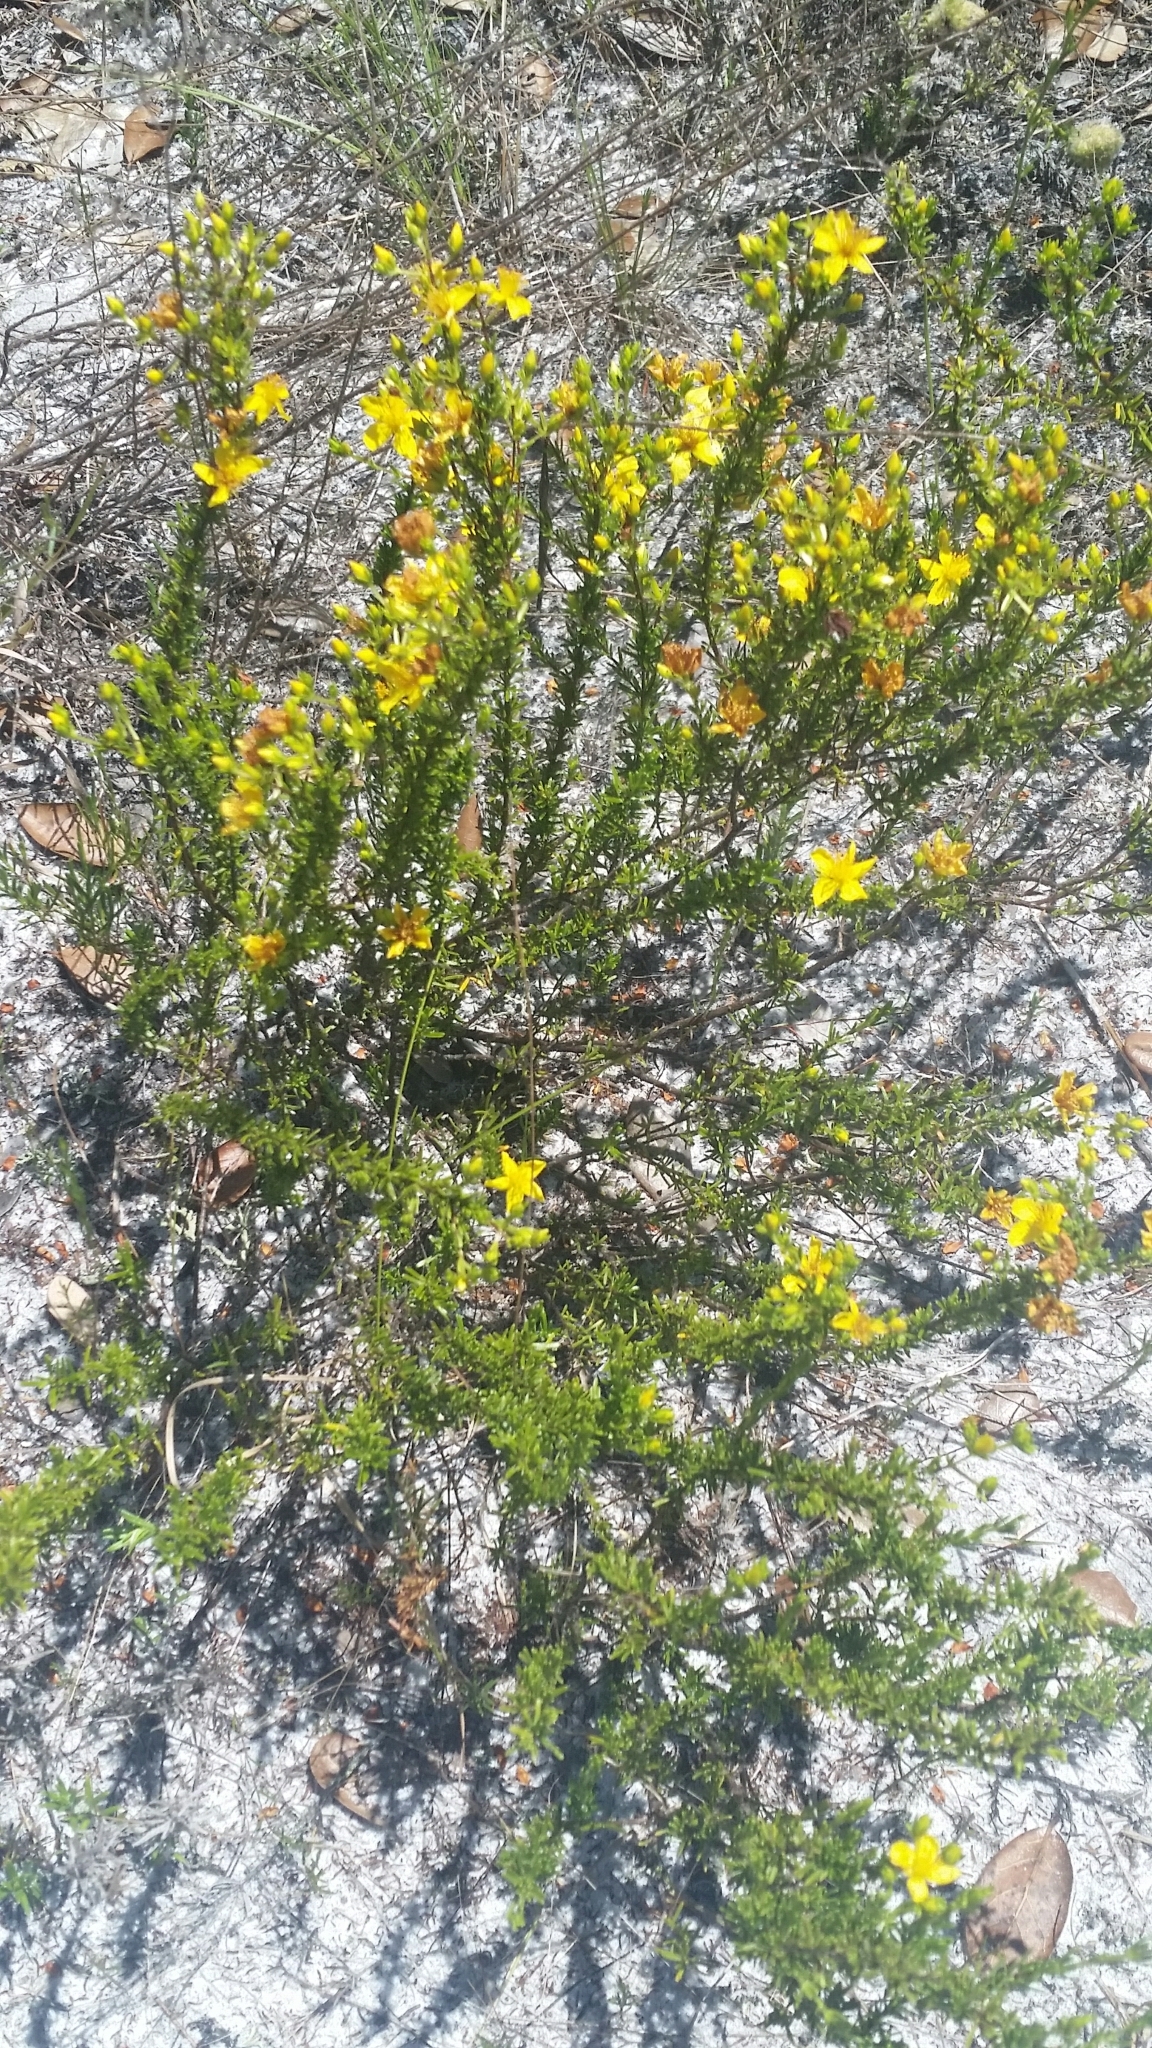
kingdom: Plantae
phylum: Tracheophyta
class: Magnoliopsida
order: Malpighiales
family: Hypericaceae
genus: Hypericum
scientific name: Hypericum tenuifolium
